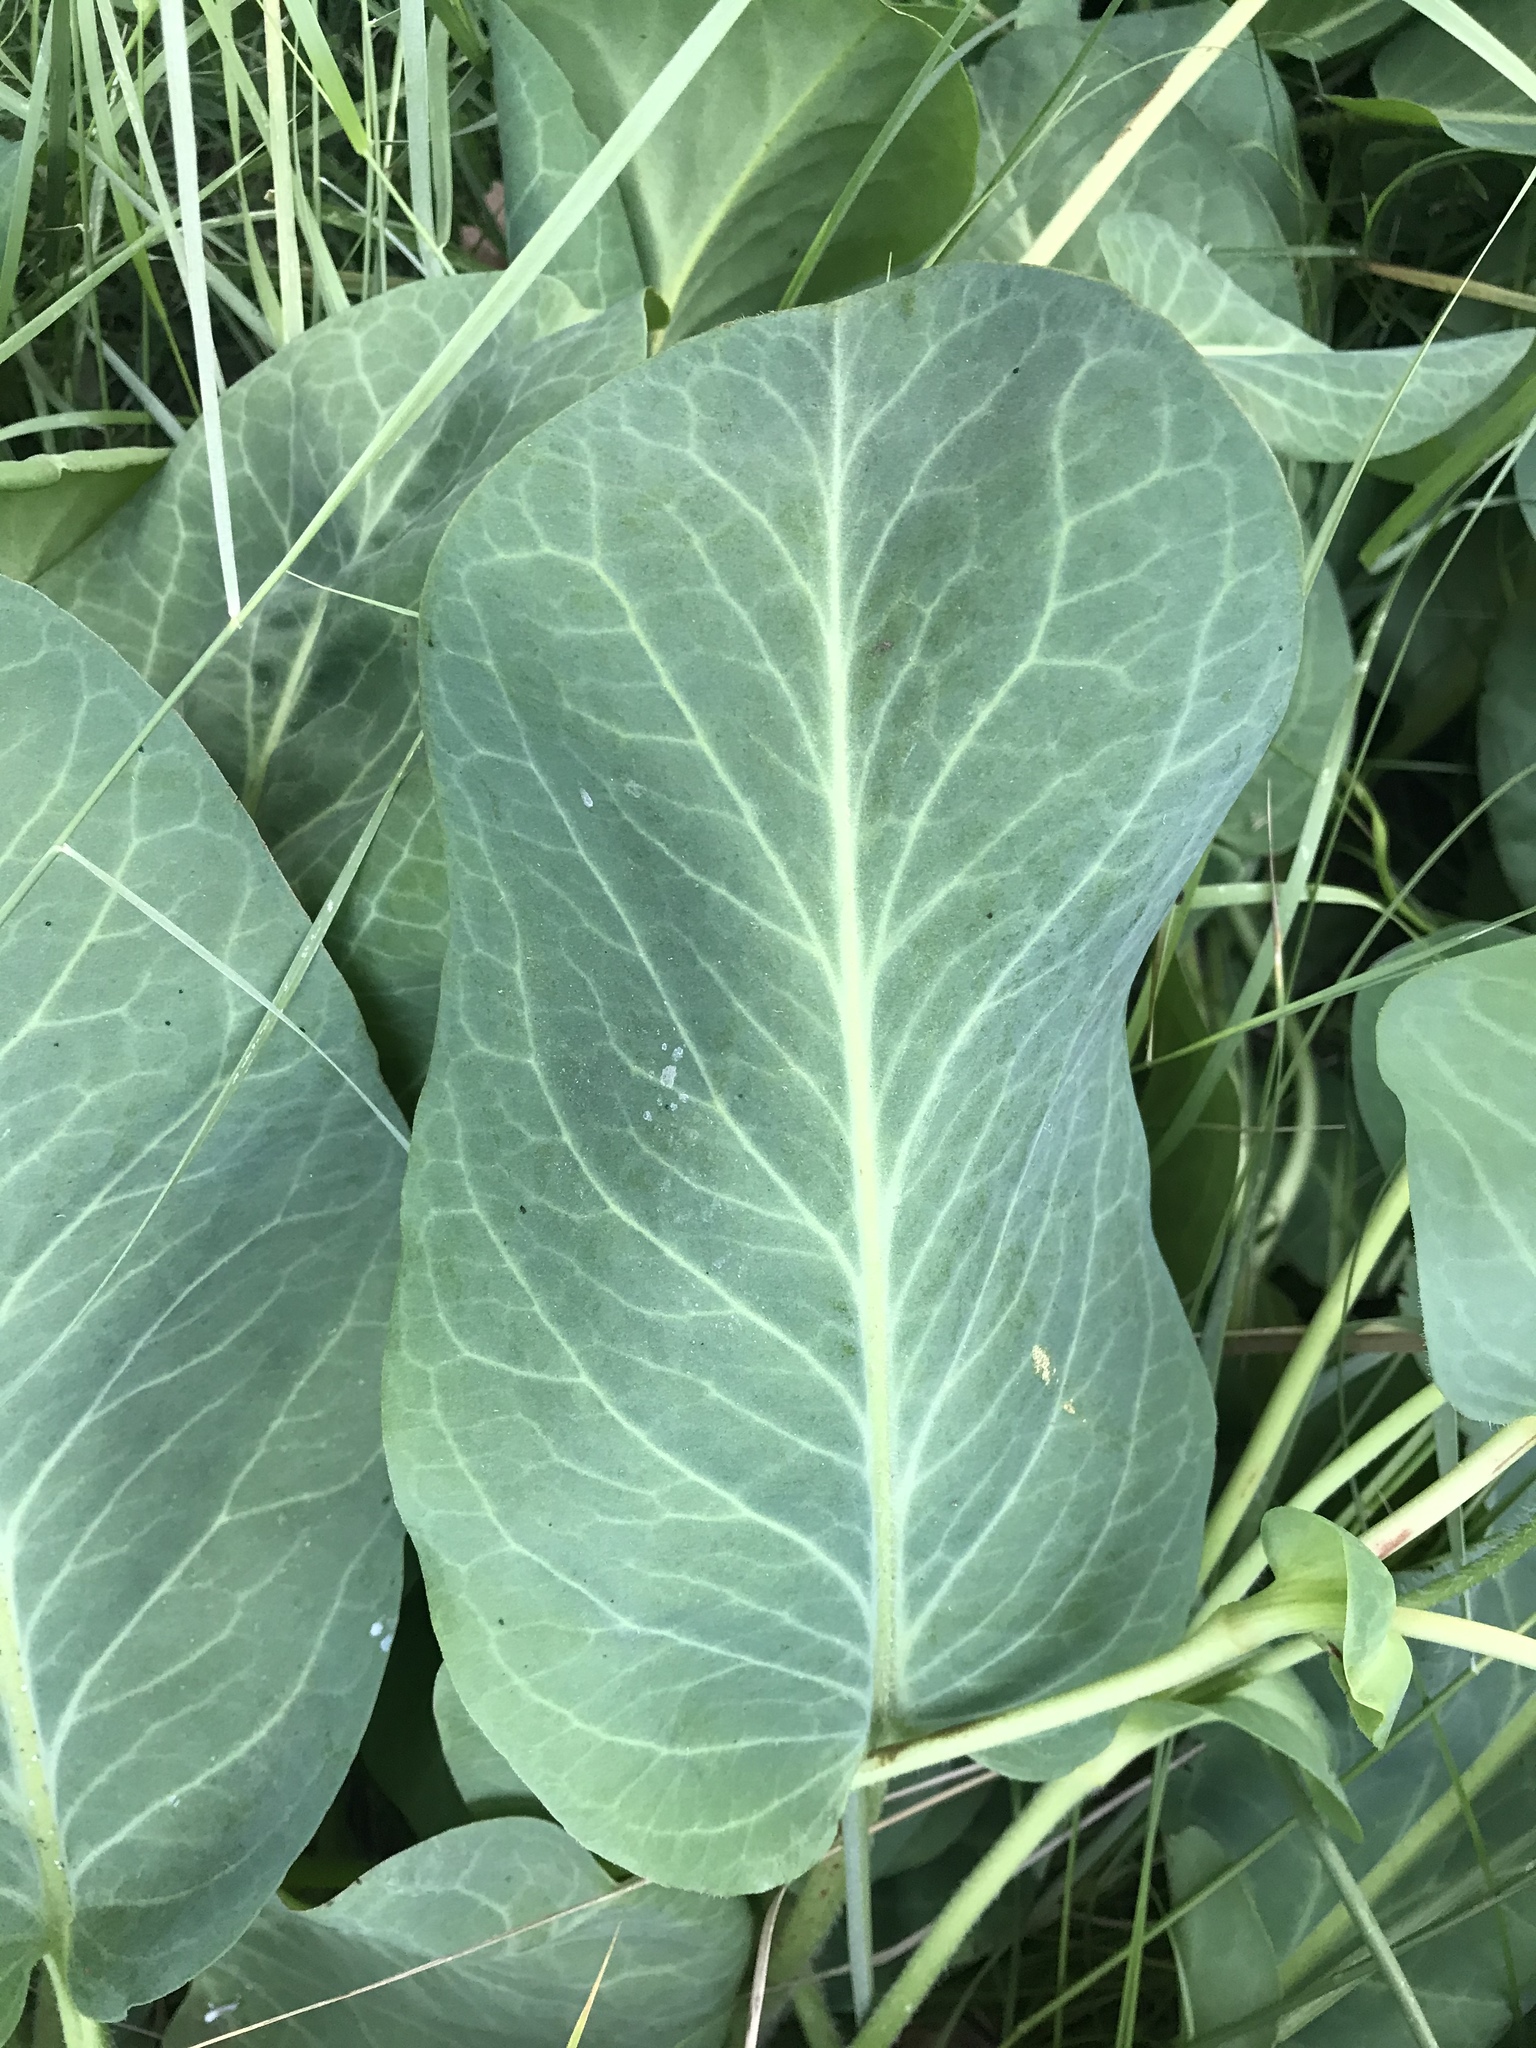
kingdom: Plantae
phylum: Tracheophyta
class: Magnoliopsida
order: Piperales
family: Saururaceae
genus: Anemopsis
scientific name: Anemopsis californica
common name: Apache-beads
